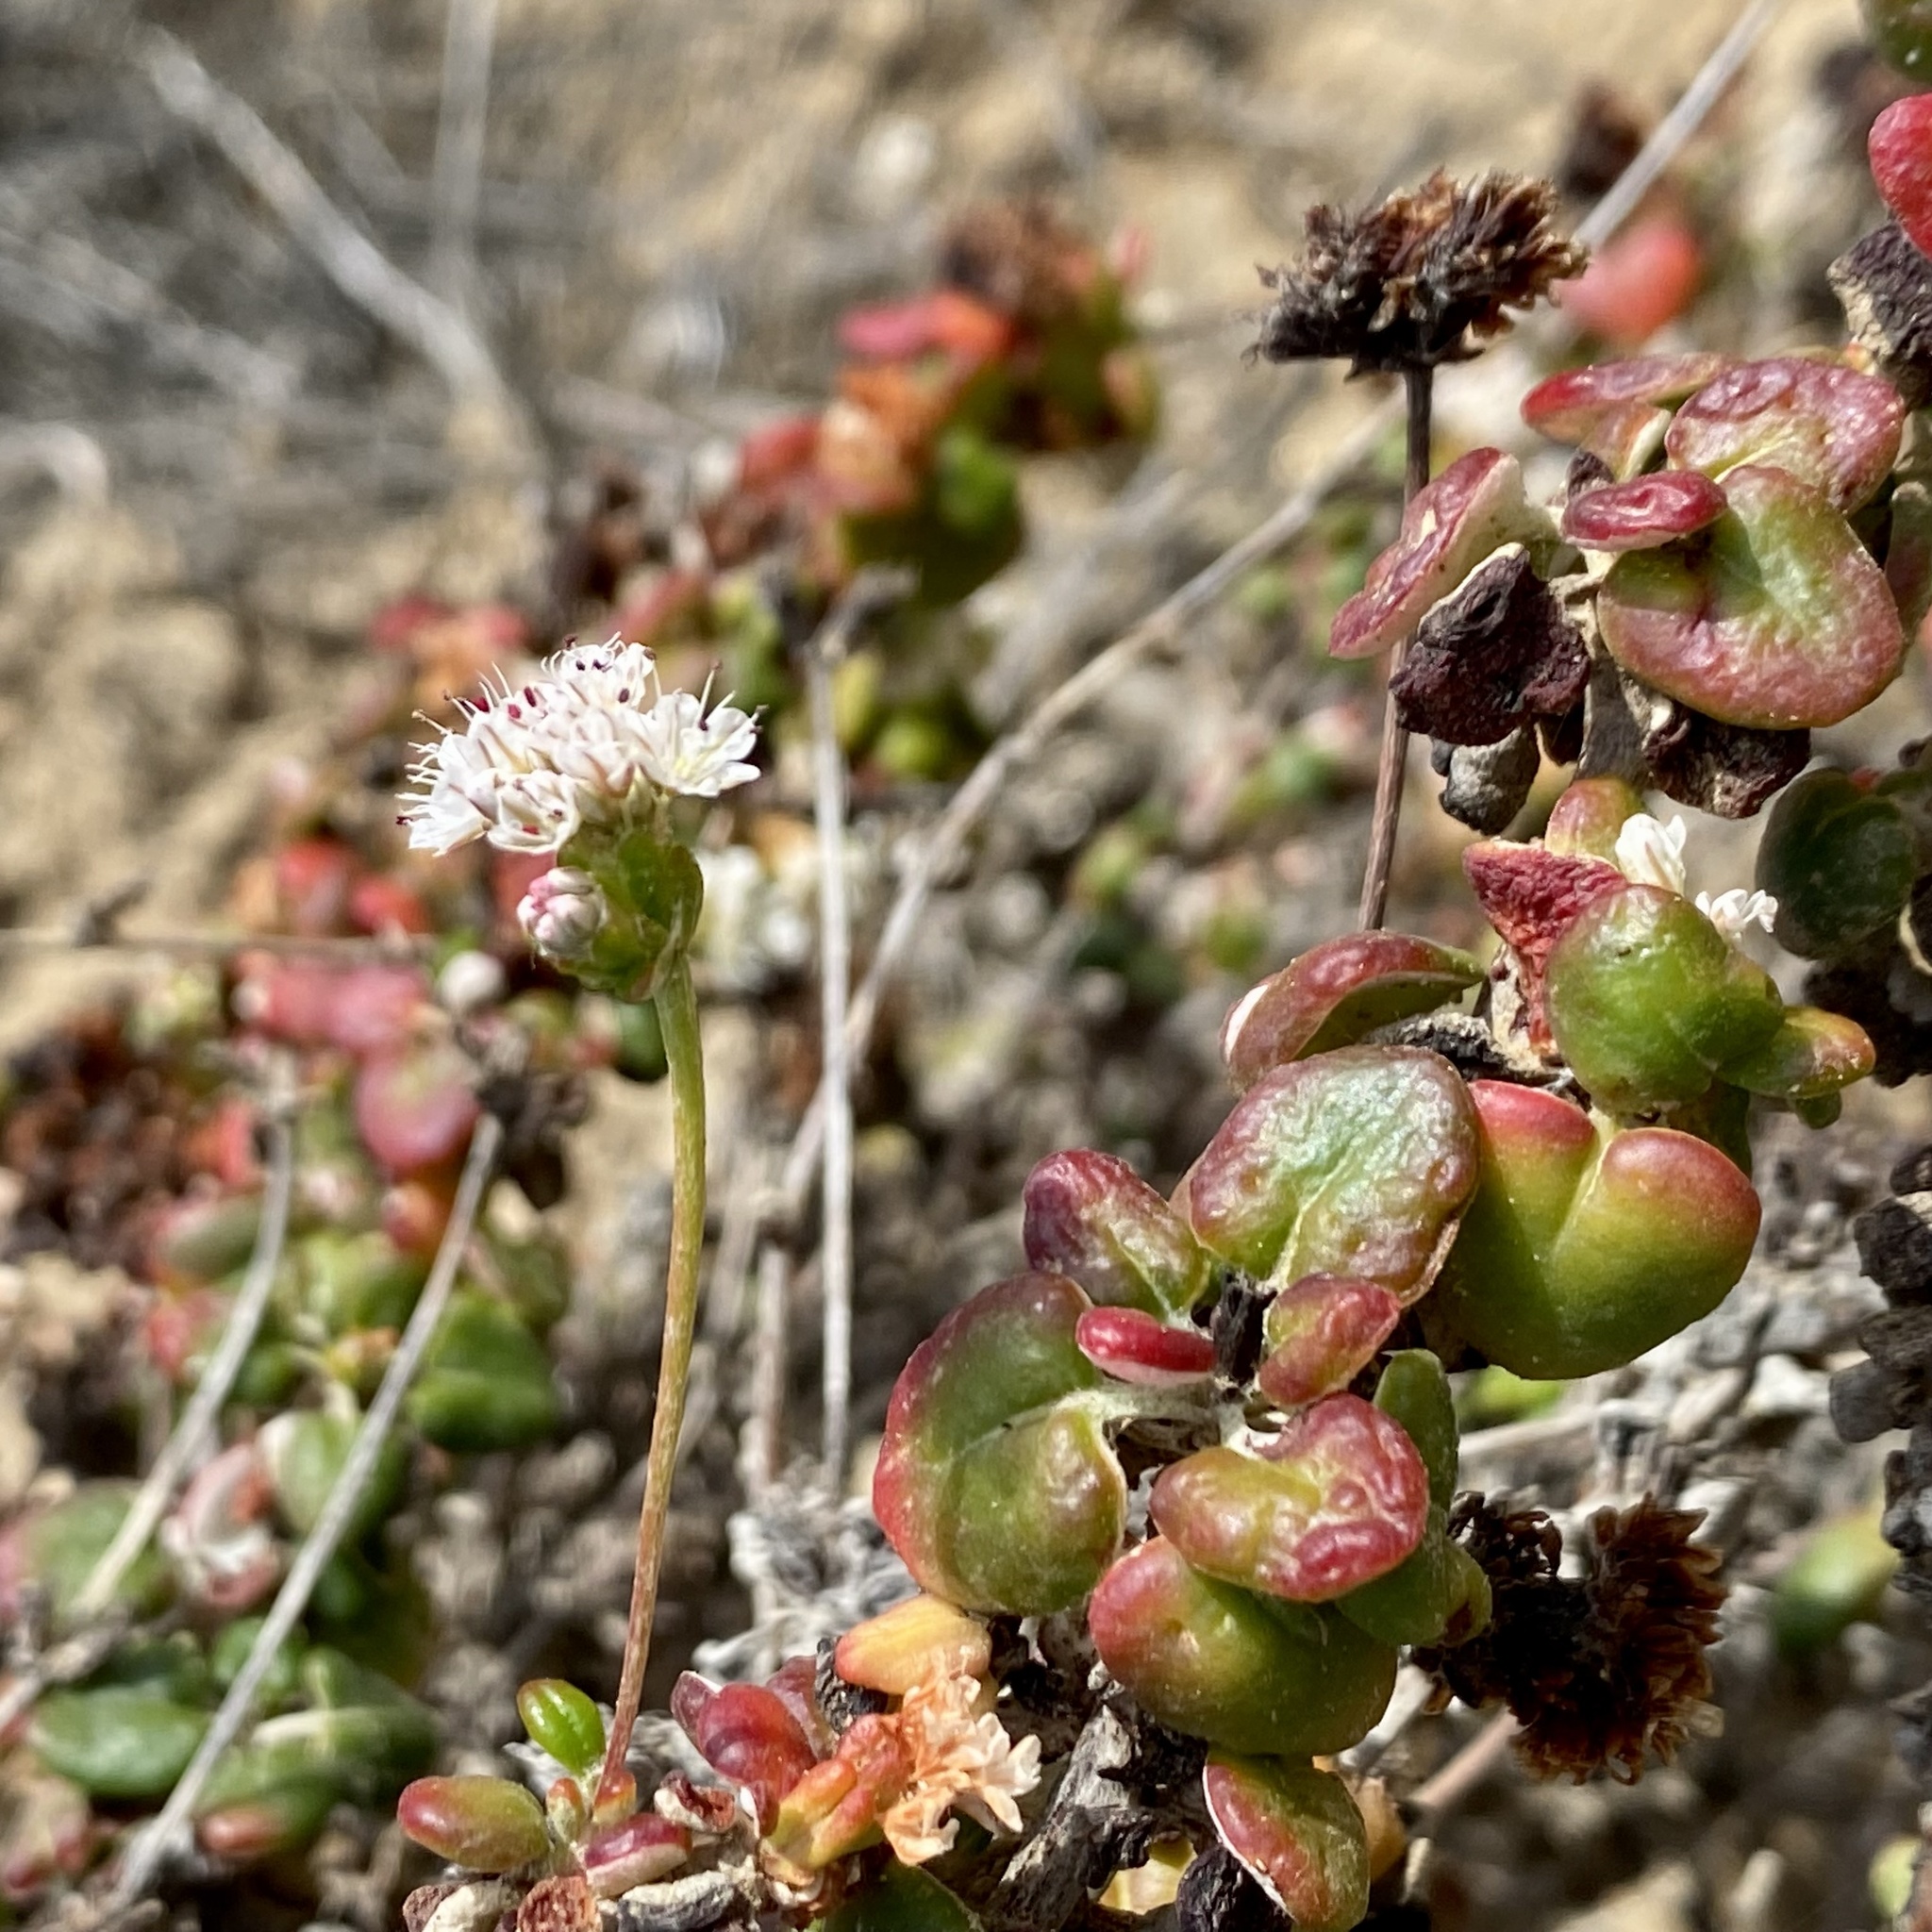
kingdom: Plantae
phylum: Tracheophyta
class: Magnoliopsida
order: Caryophyllales
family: Polygonaceae
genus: Eriogonum
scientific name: Eriogonum parvifolium
